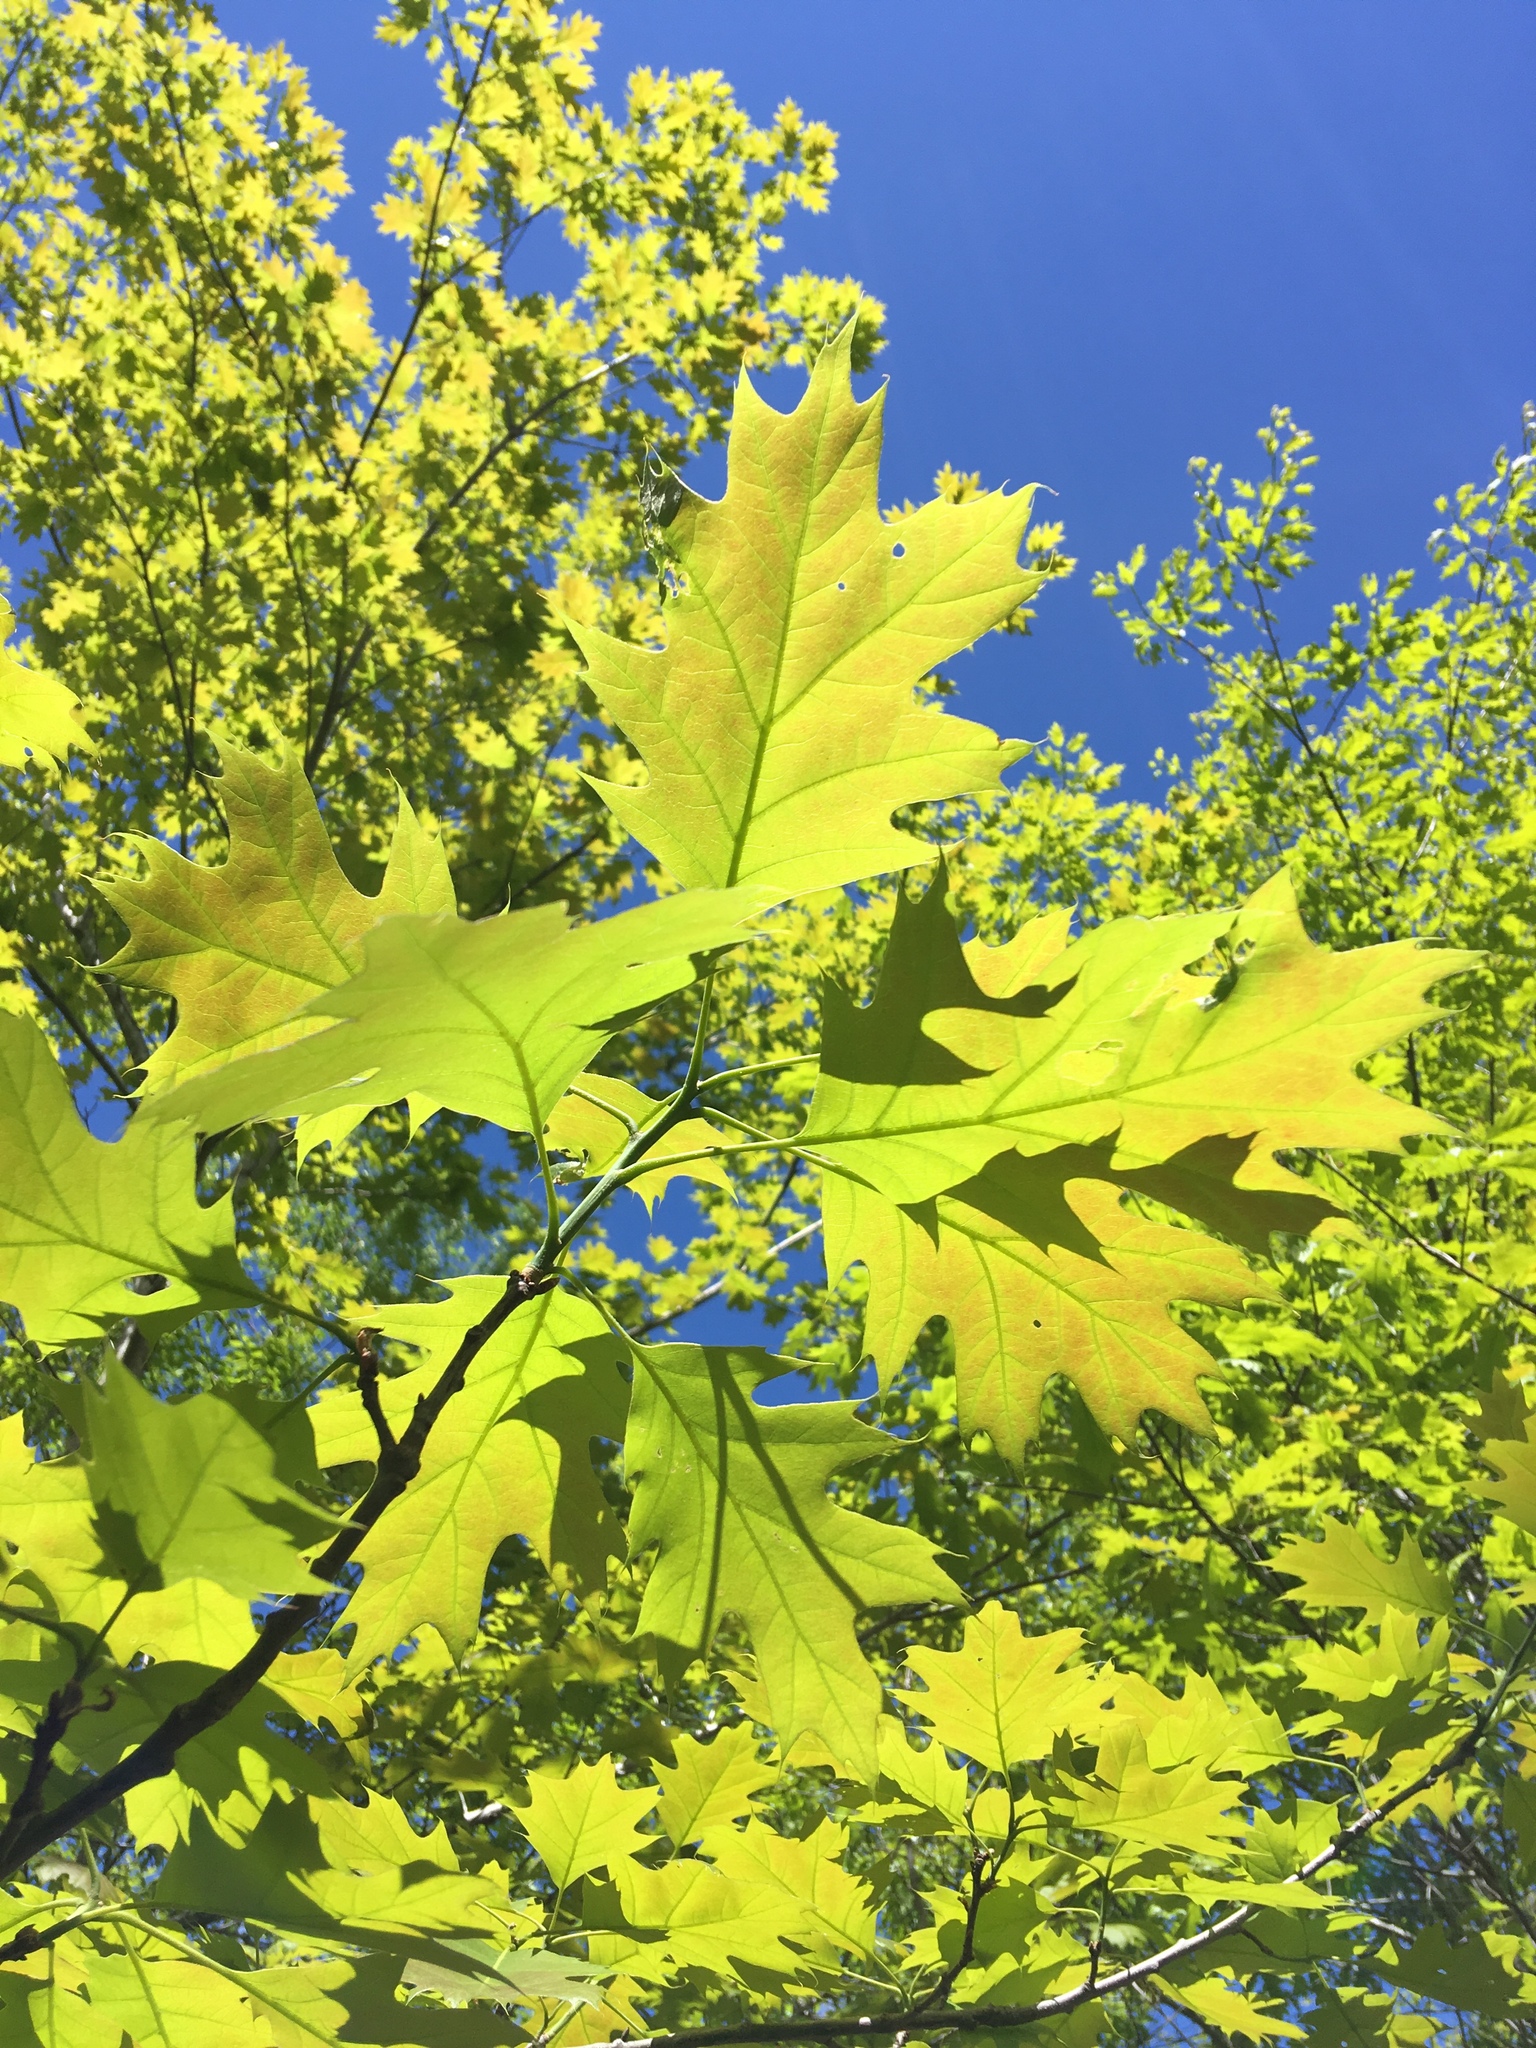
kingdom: Plantae
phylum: Tracheophyta
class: Magnoliopsida
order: Fagales
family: Fagaceae
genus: Quercus
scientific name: Quercus rubra
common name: Red oak
